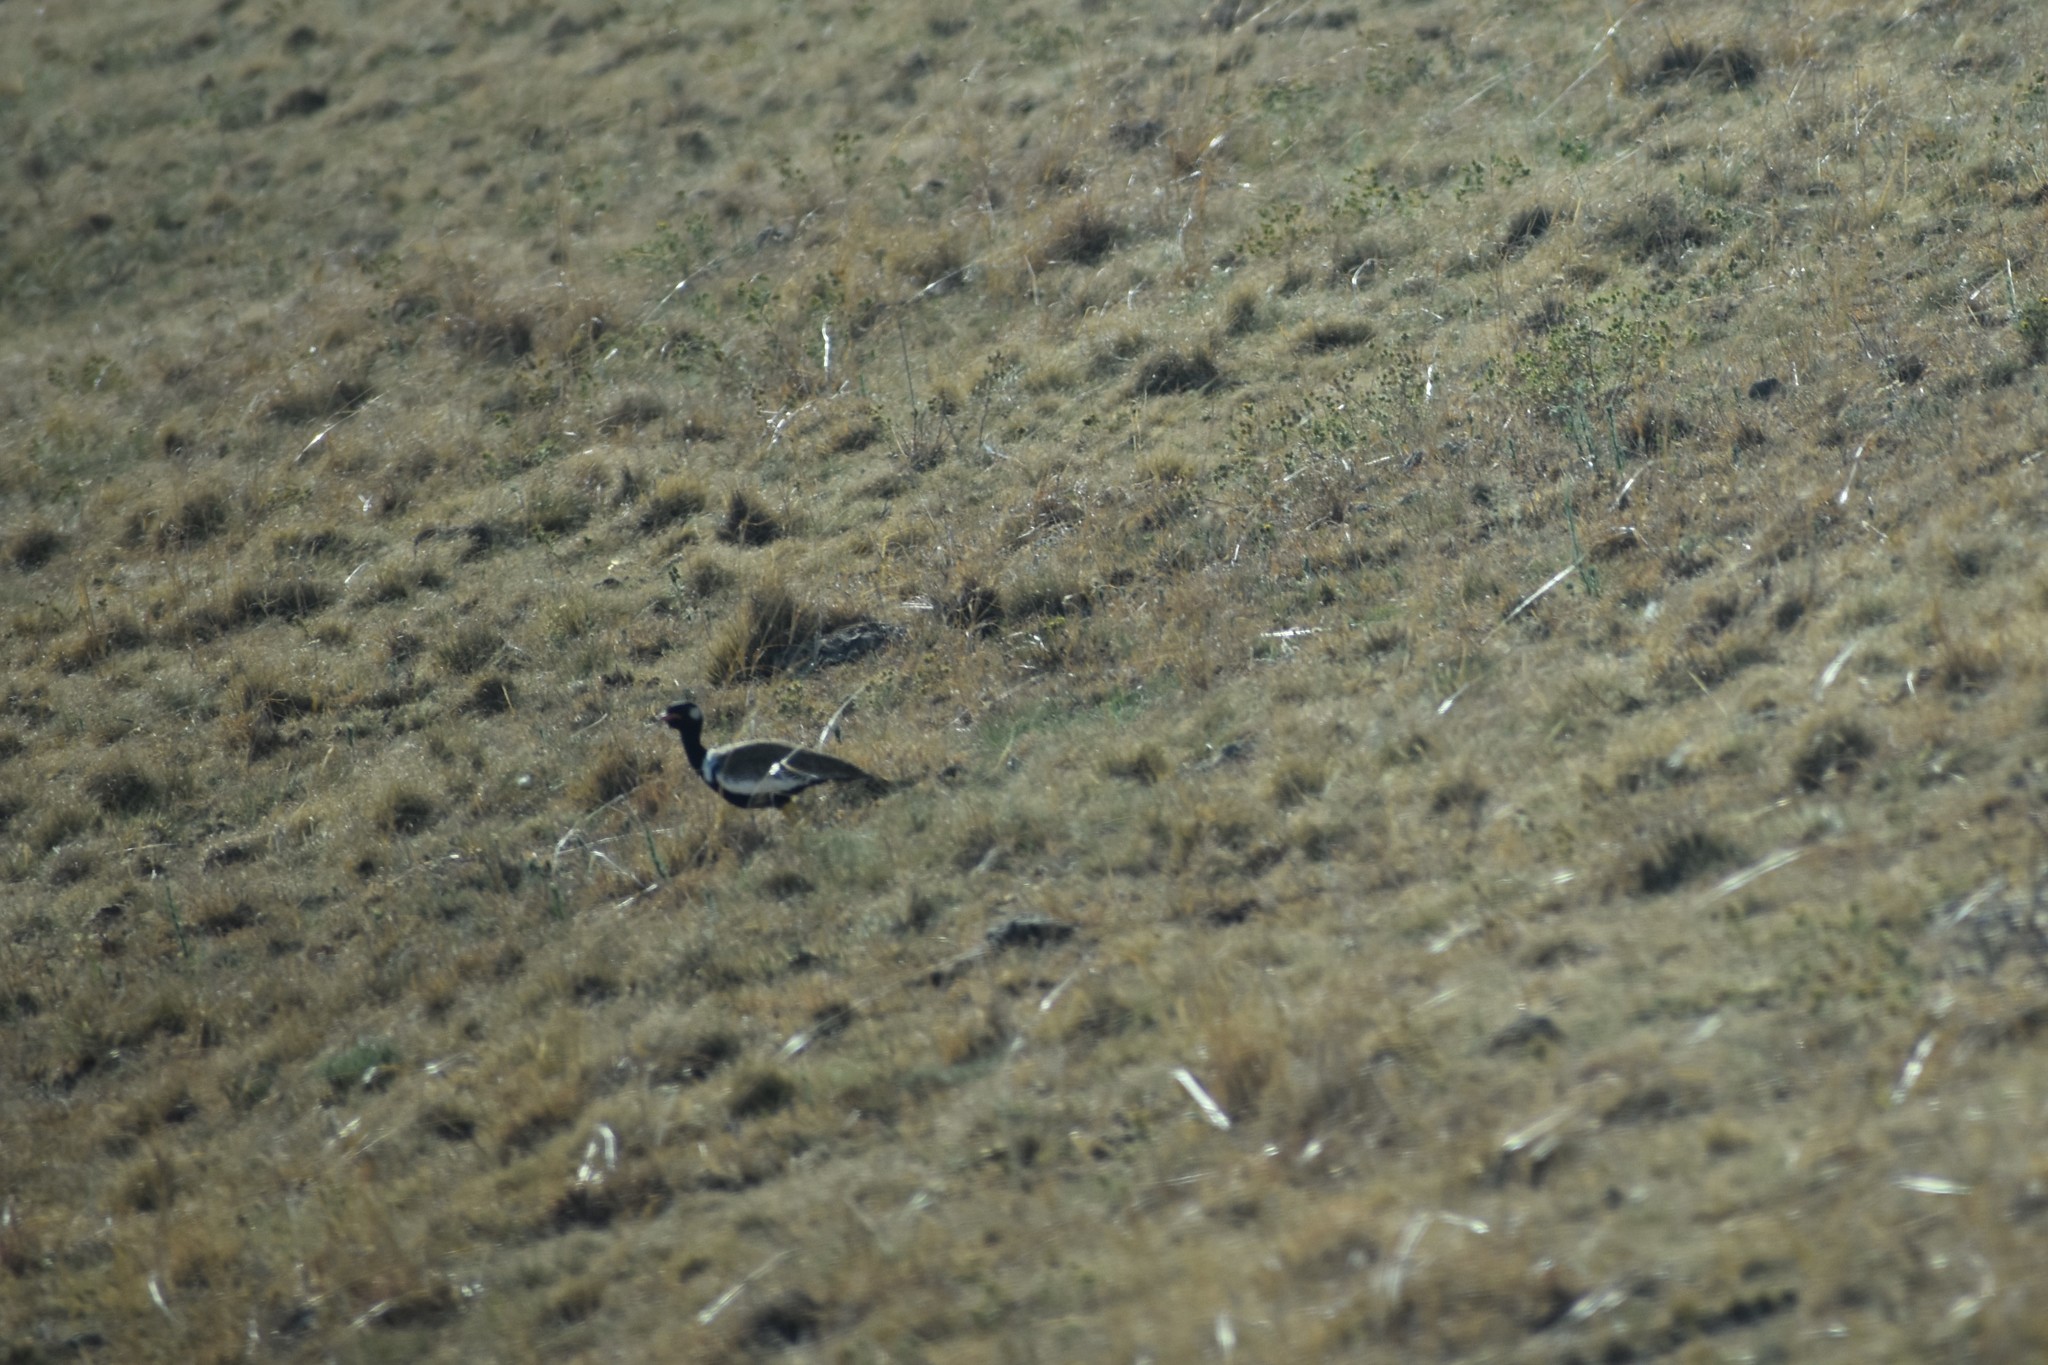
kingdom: Animalia
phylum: Chordata
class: Aves
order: Otidiformes
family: Otididae
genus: Afrotis
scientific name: Afrotis afraoides
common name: Northern black korhaan
